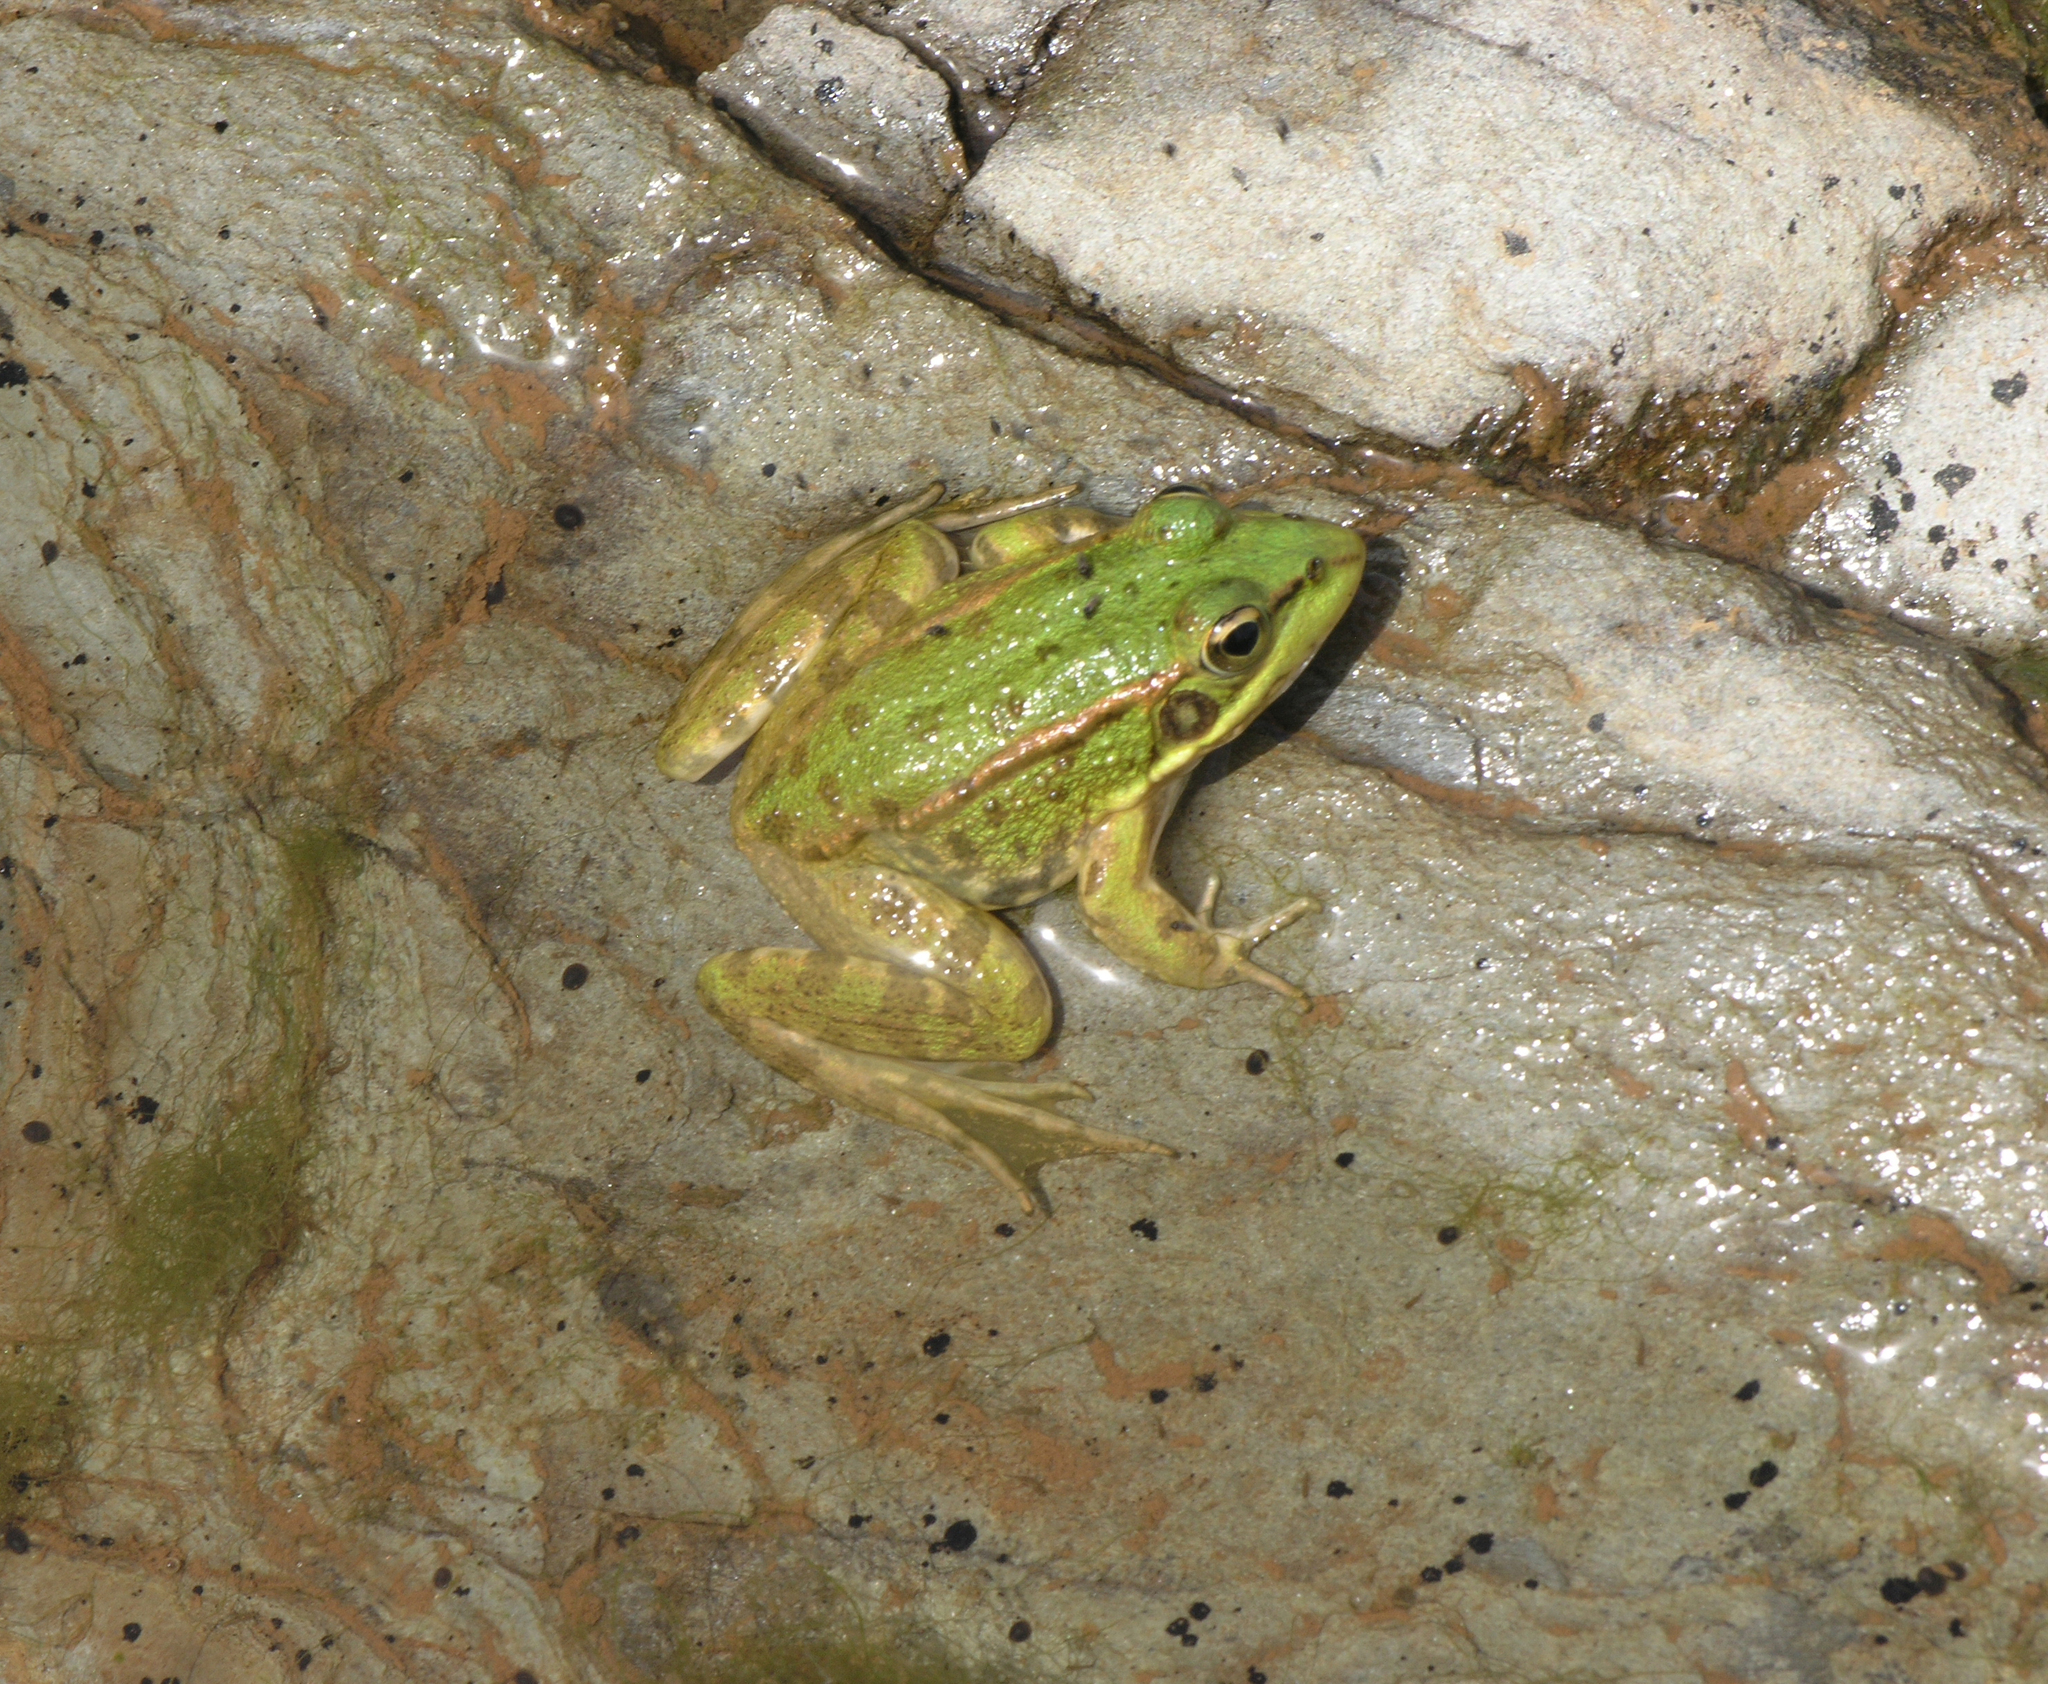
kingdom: Animalia
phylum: Chordata
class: Amphibia
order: Anura
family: Ranidae
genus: Pelophylax
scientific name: Pelophylax perezi
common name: Perez's frog
